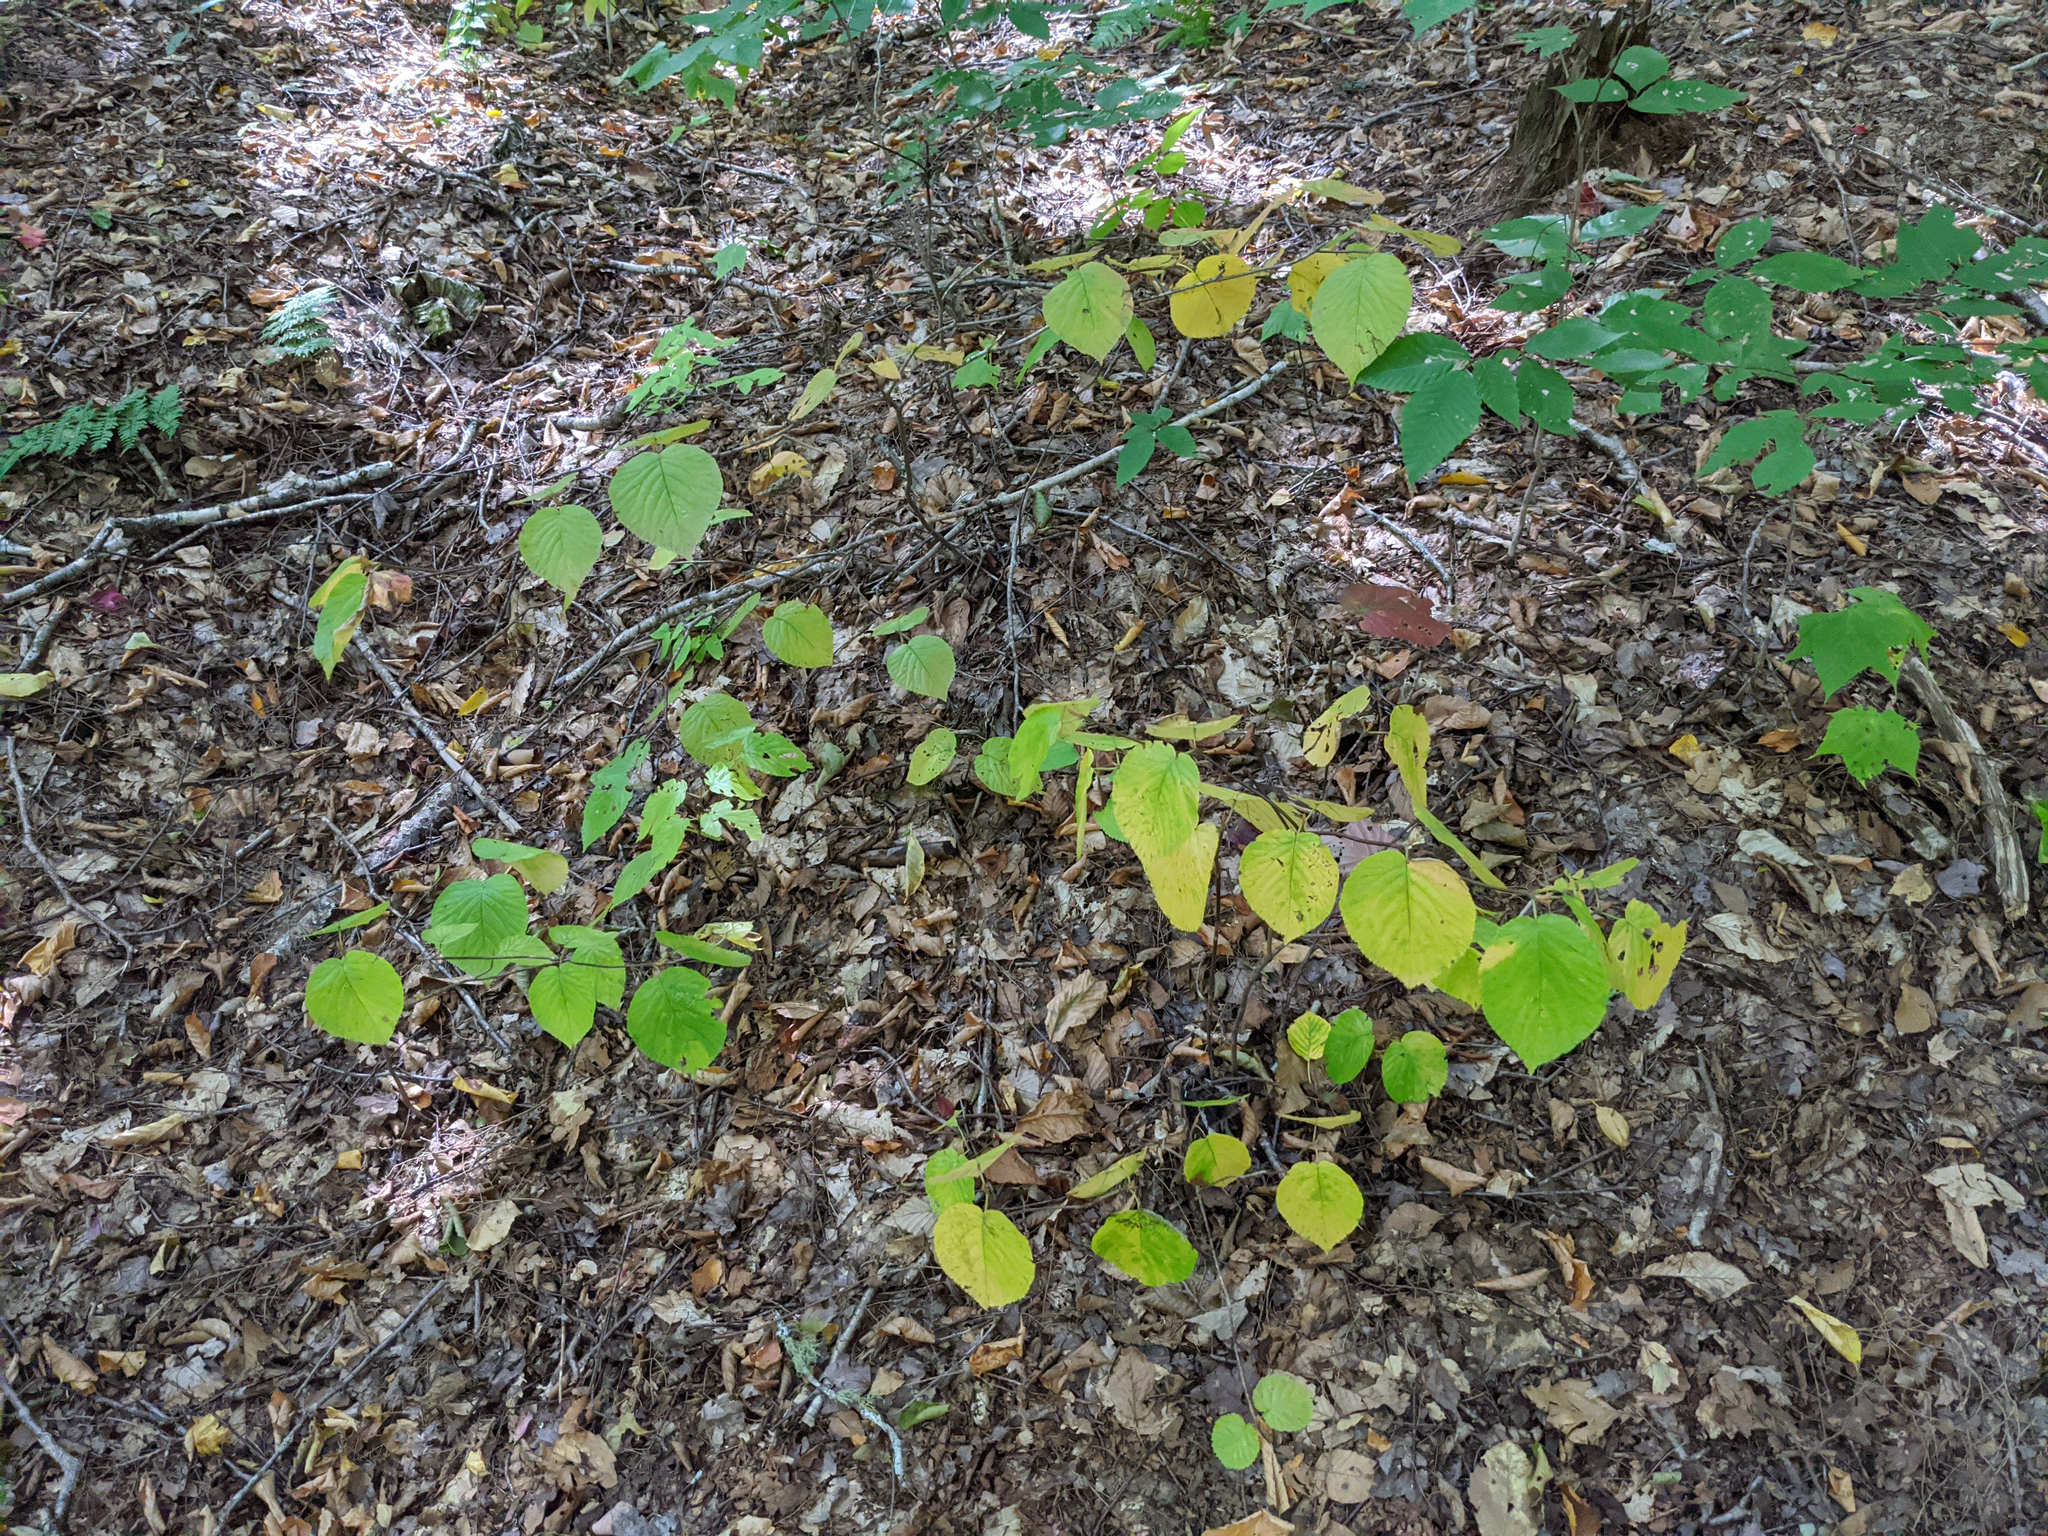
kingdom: Plantae
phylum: Tracheophyta
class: Magnoliopsida
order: Dipsacales
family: Viburnaceae
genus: Viburnum
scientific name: Viburnum lantanoides
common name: Hobblebush
